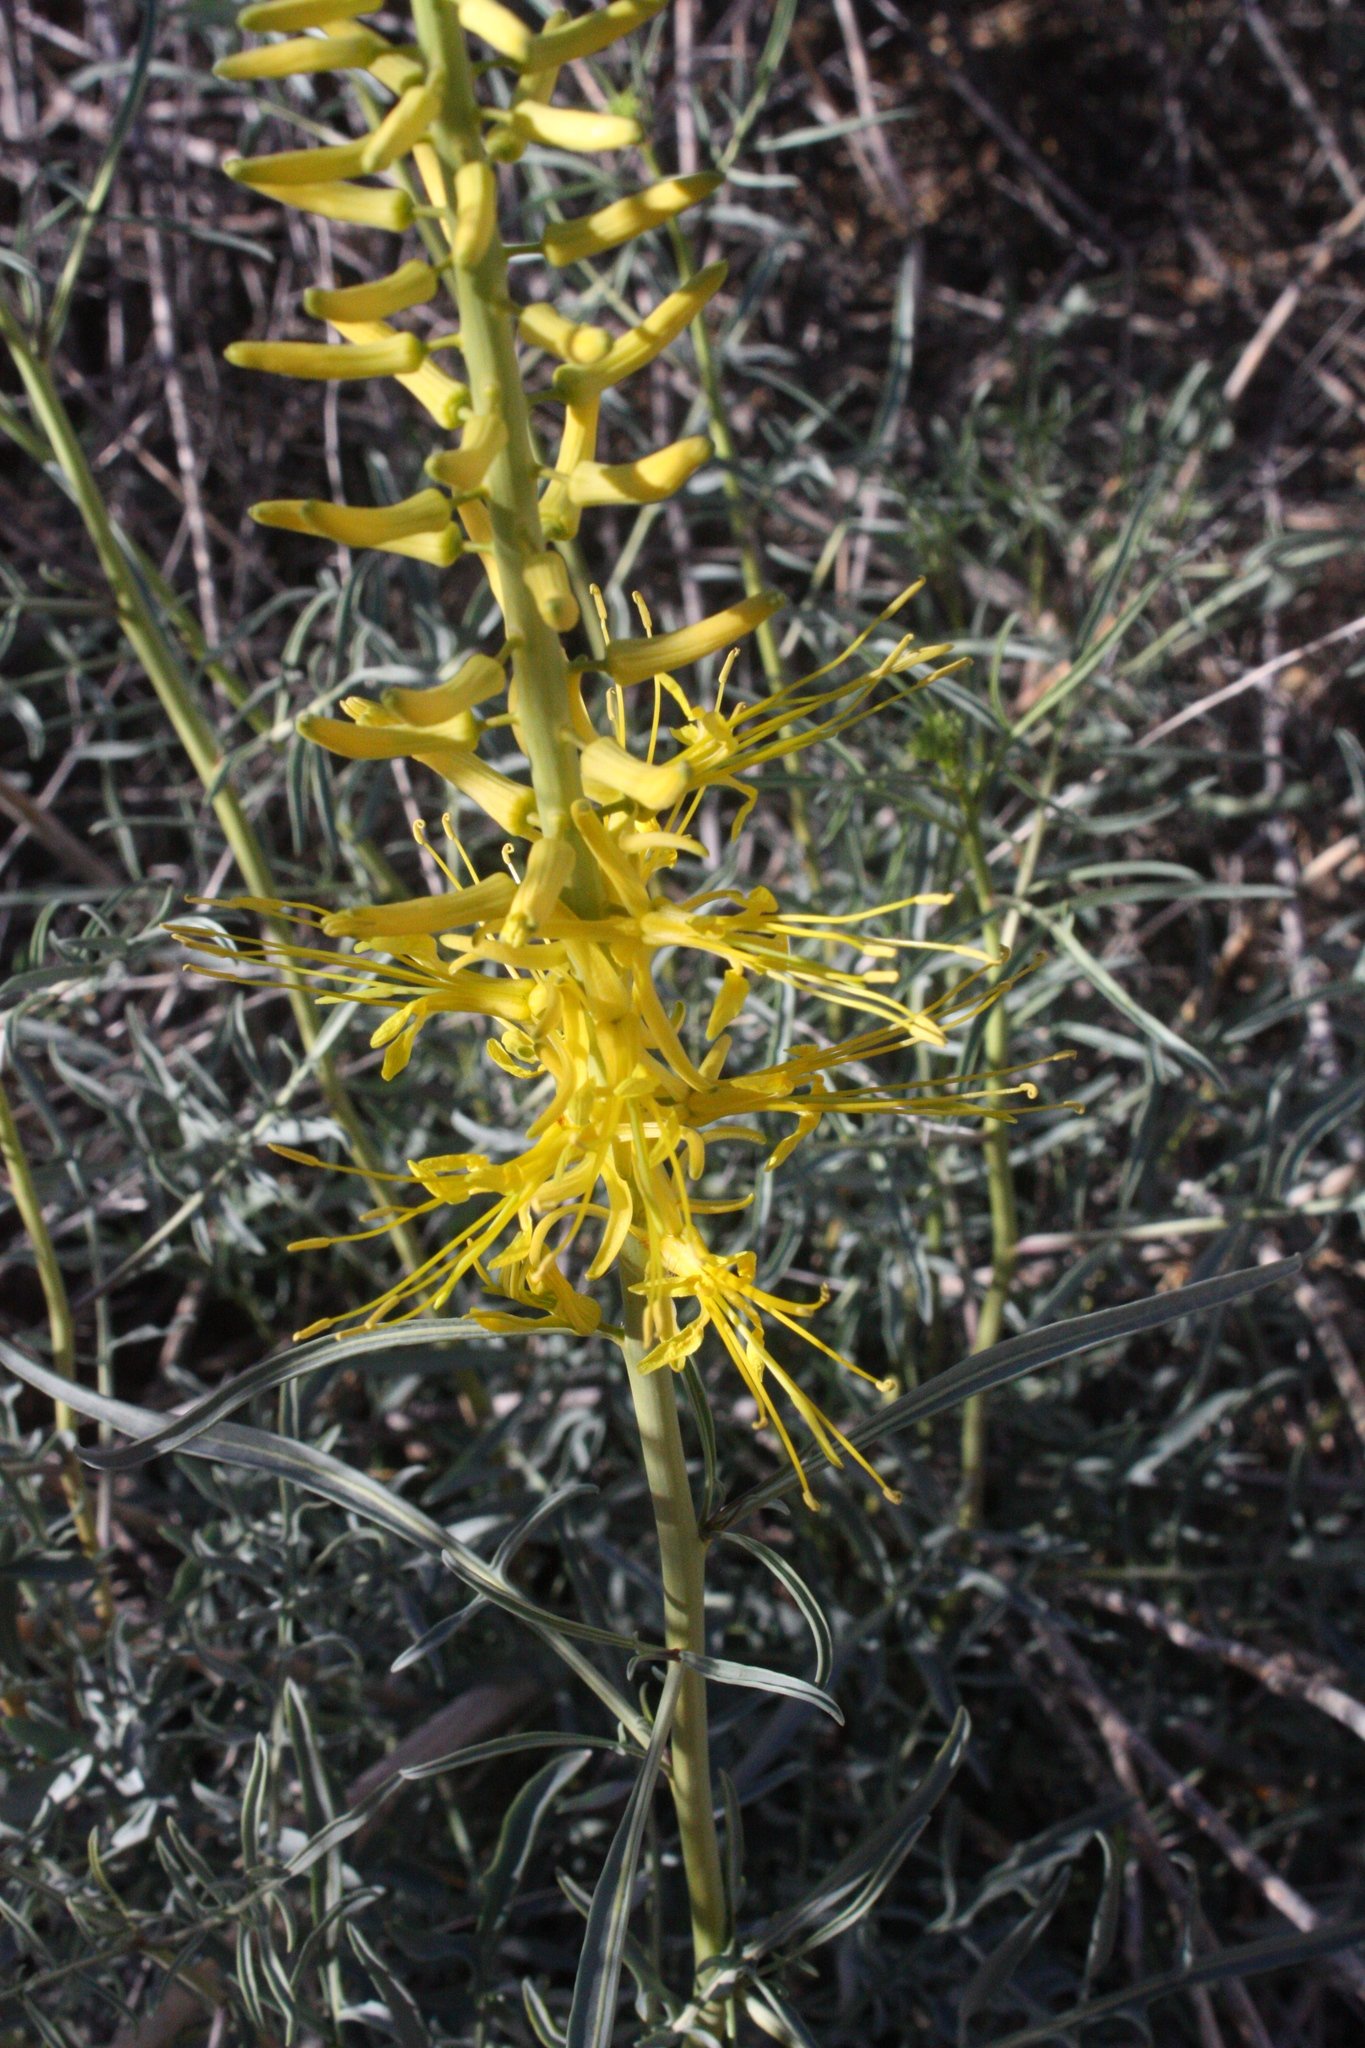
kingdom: Plantae
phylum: Tracheophyta
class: Magnoliopsida
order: Brassicales
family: Brassicaceae
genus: Stanleya
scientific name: Stanleya pinnata
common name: Prince's-plume
